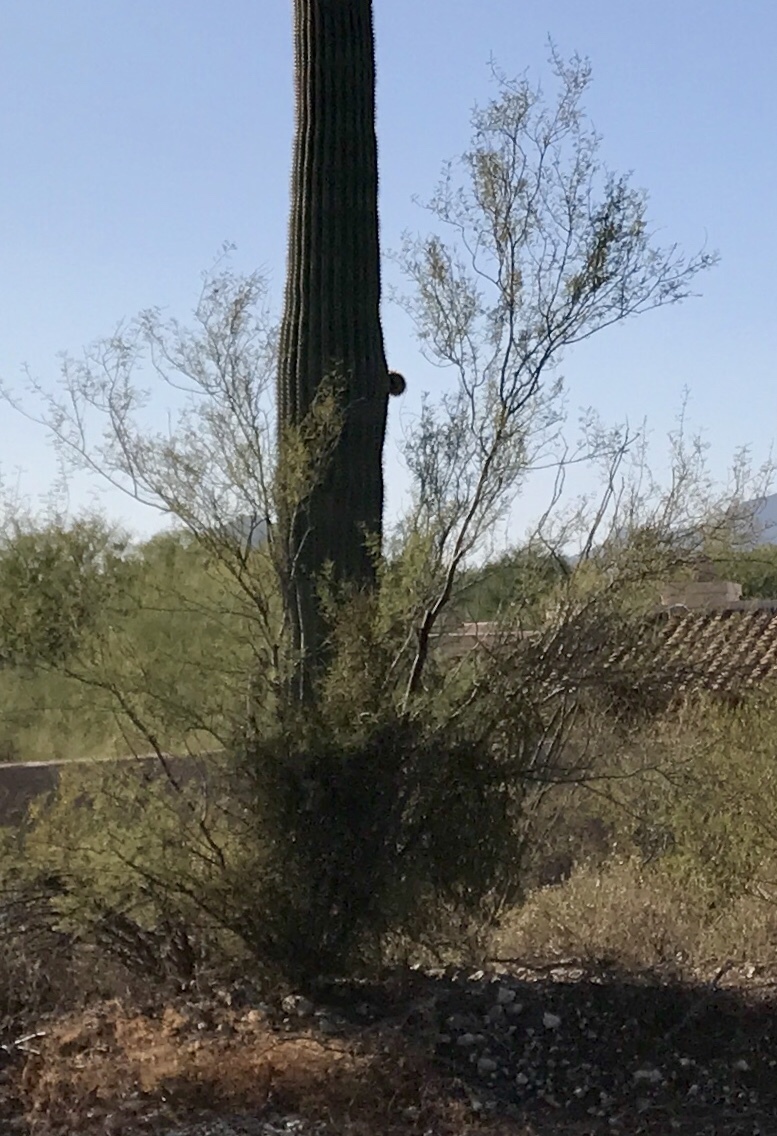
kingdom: Plantae
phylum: Tracheophyta
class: Magnoliopsida
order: Zygophyllales
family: Zygophyllaceae
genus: Larrea
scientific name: Larrea tridentata
